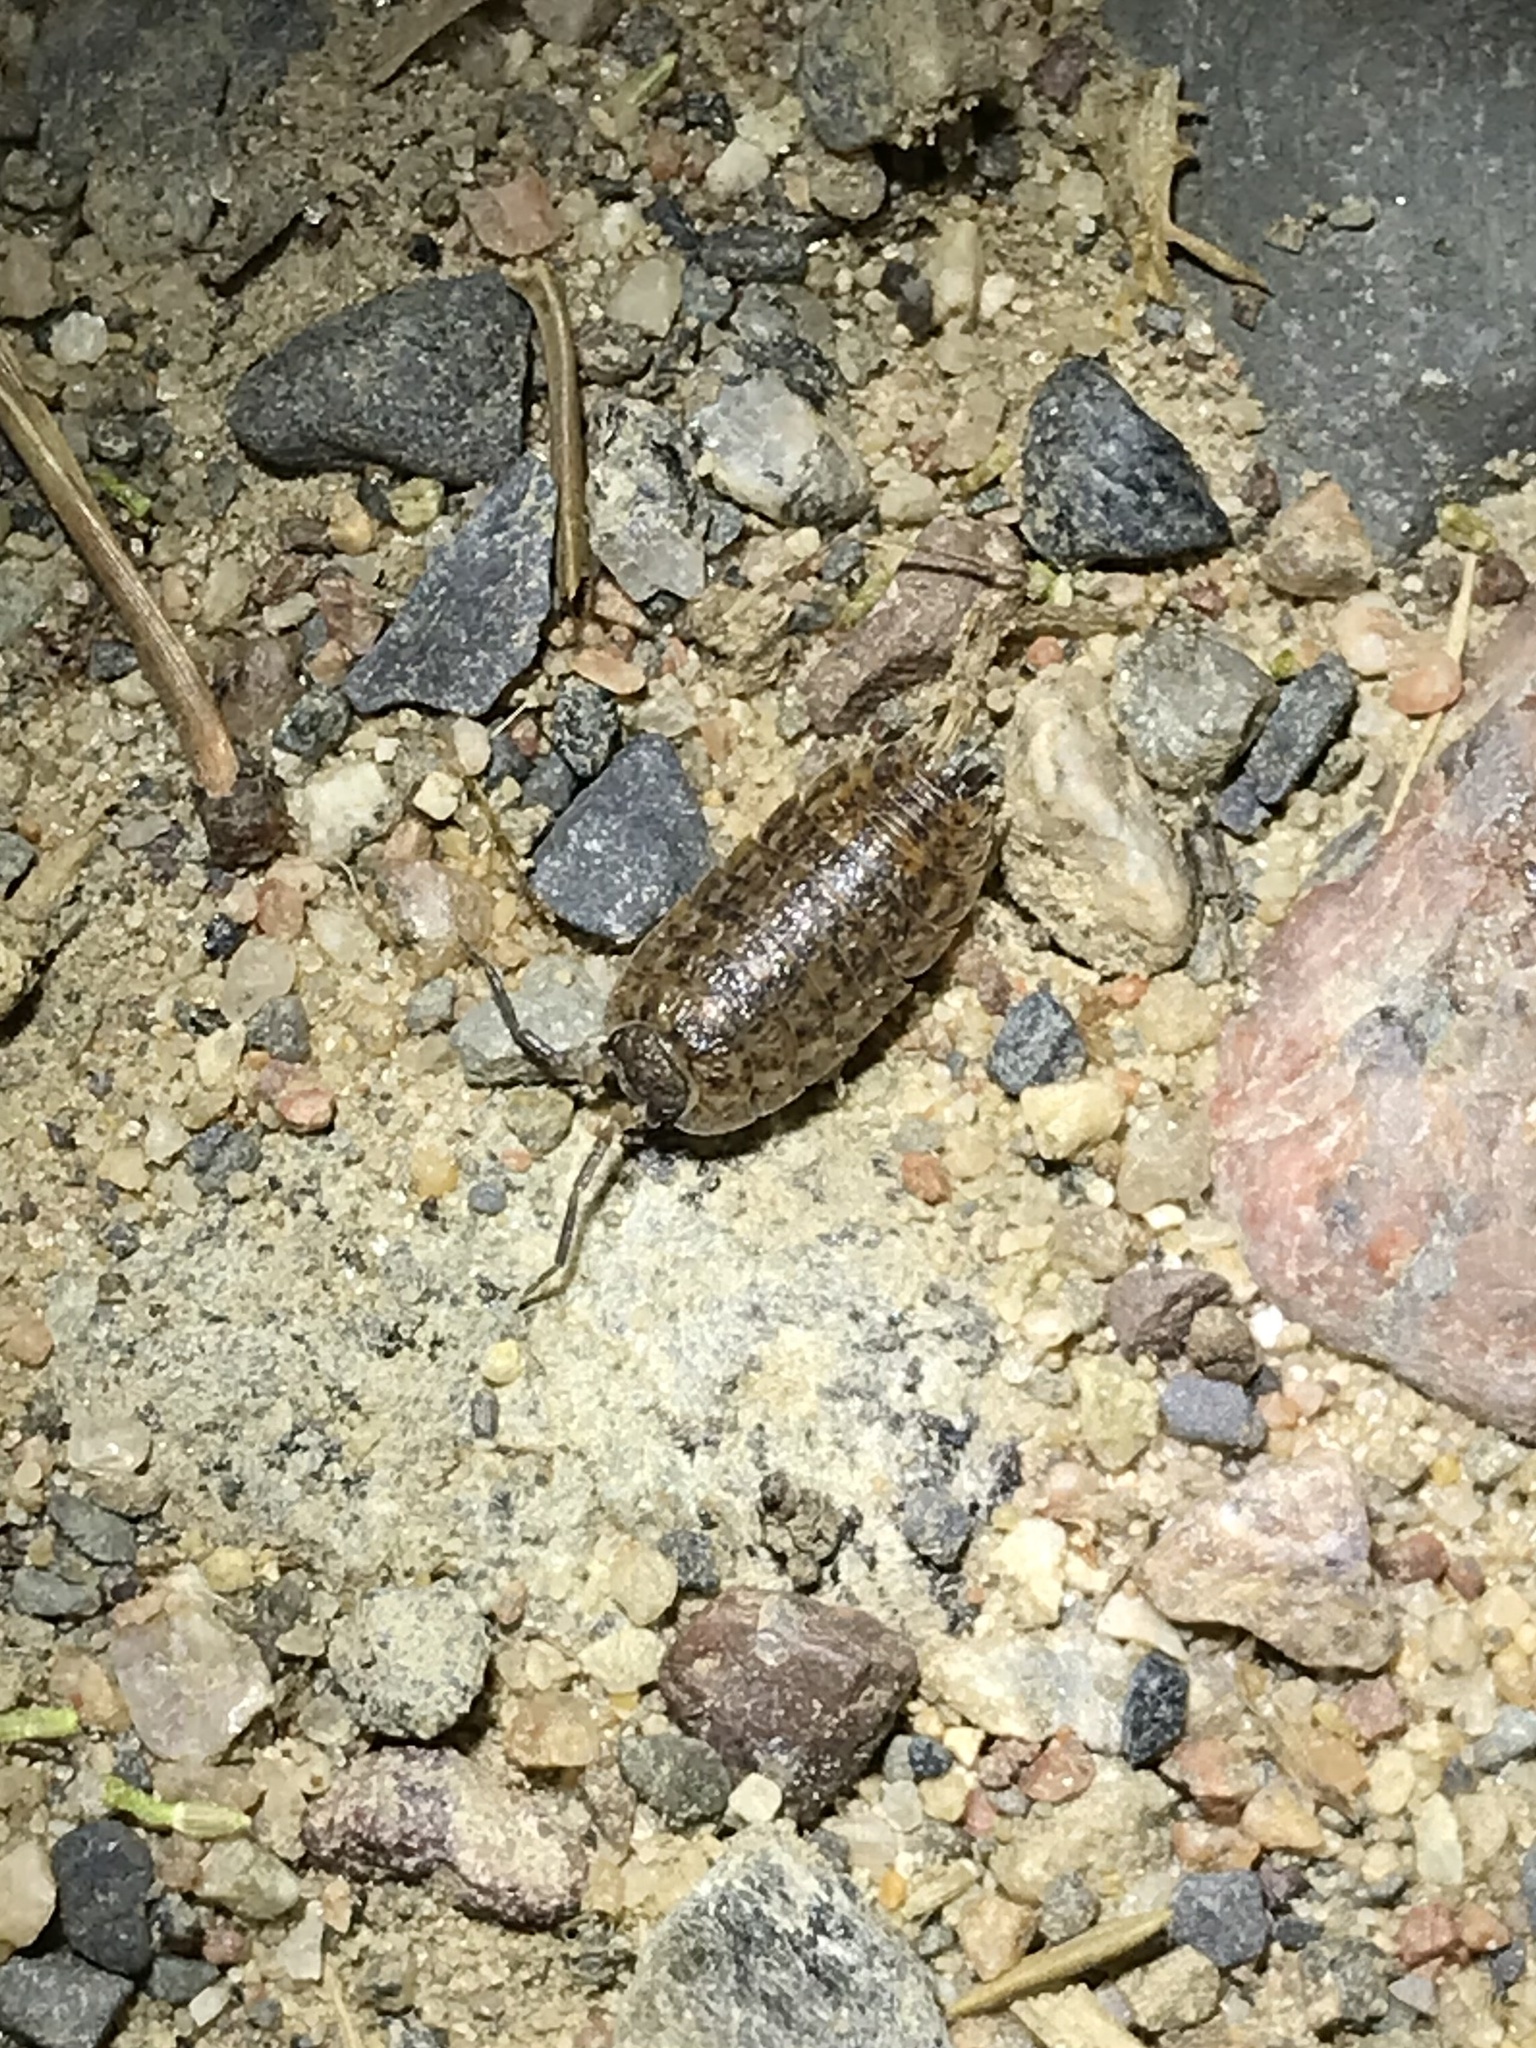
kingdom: Animalia
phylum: Arthropoda
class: Malacostraca
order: Isopoda
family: Trachelipodidae
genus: Trachelipus
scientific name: Trachelipus rathkii
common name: Isopod
